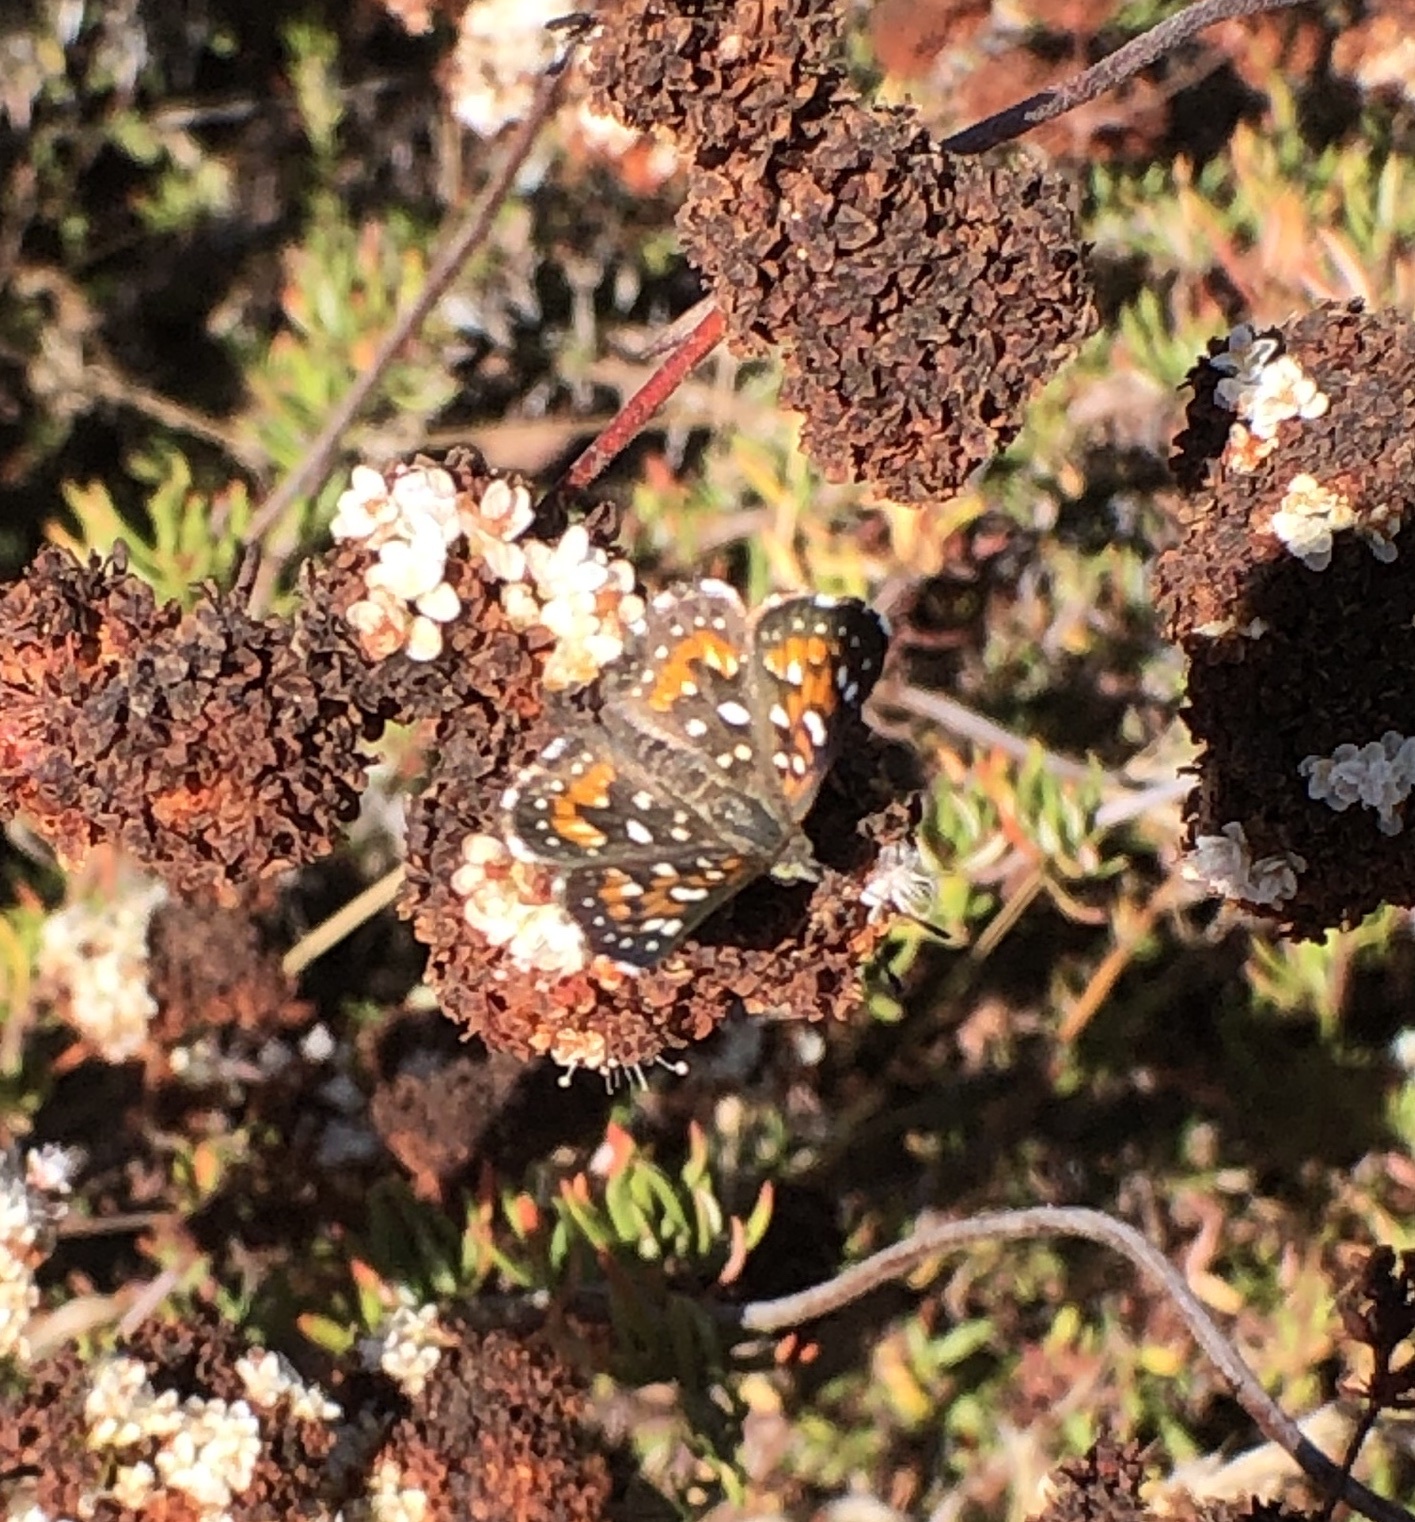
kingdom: Animalia
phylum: Arthropoda
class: Insecta
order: Lepidoptera
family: Riodinidae
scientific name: Riodinidae
